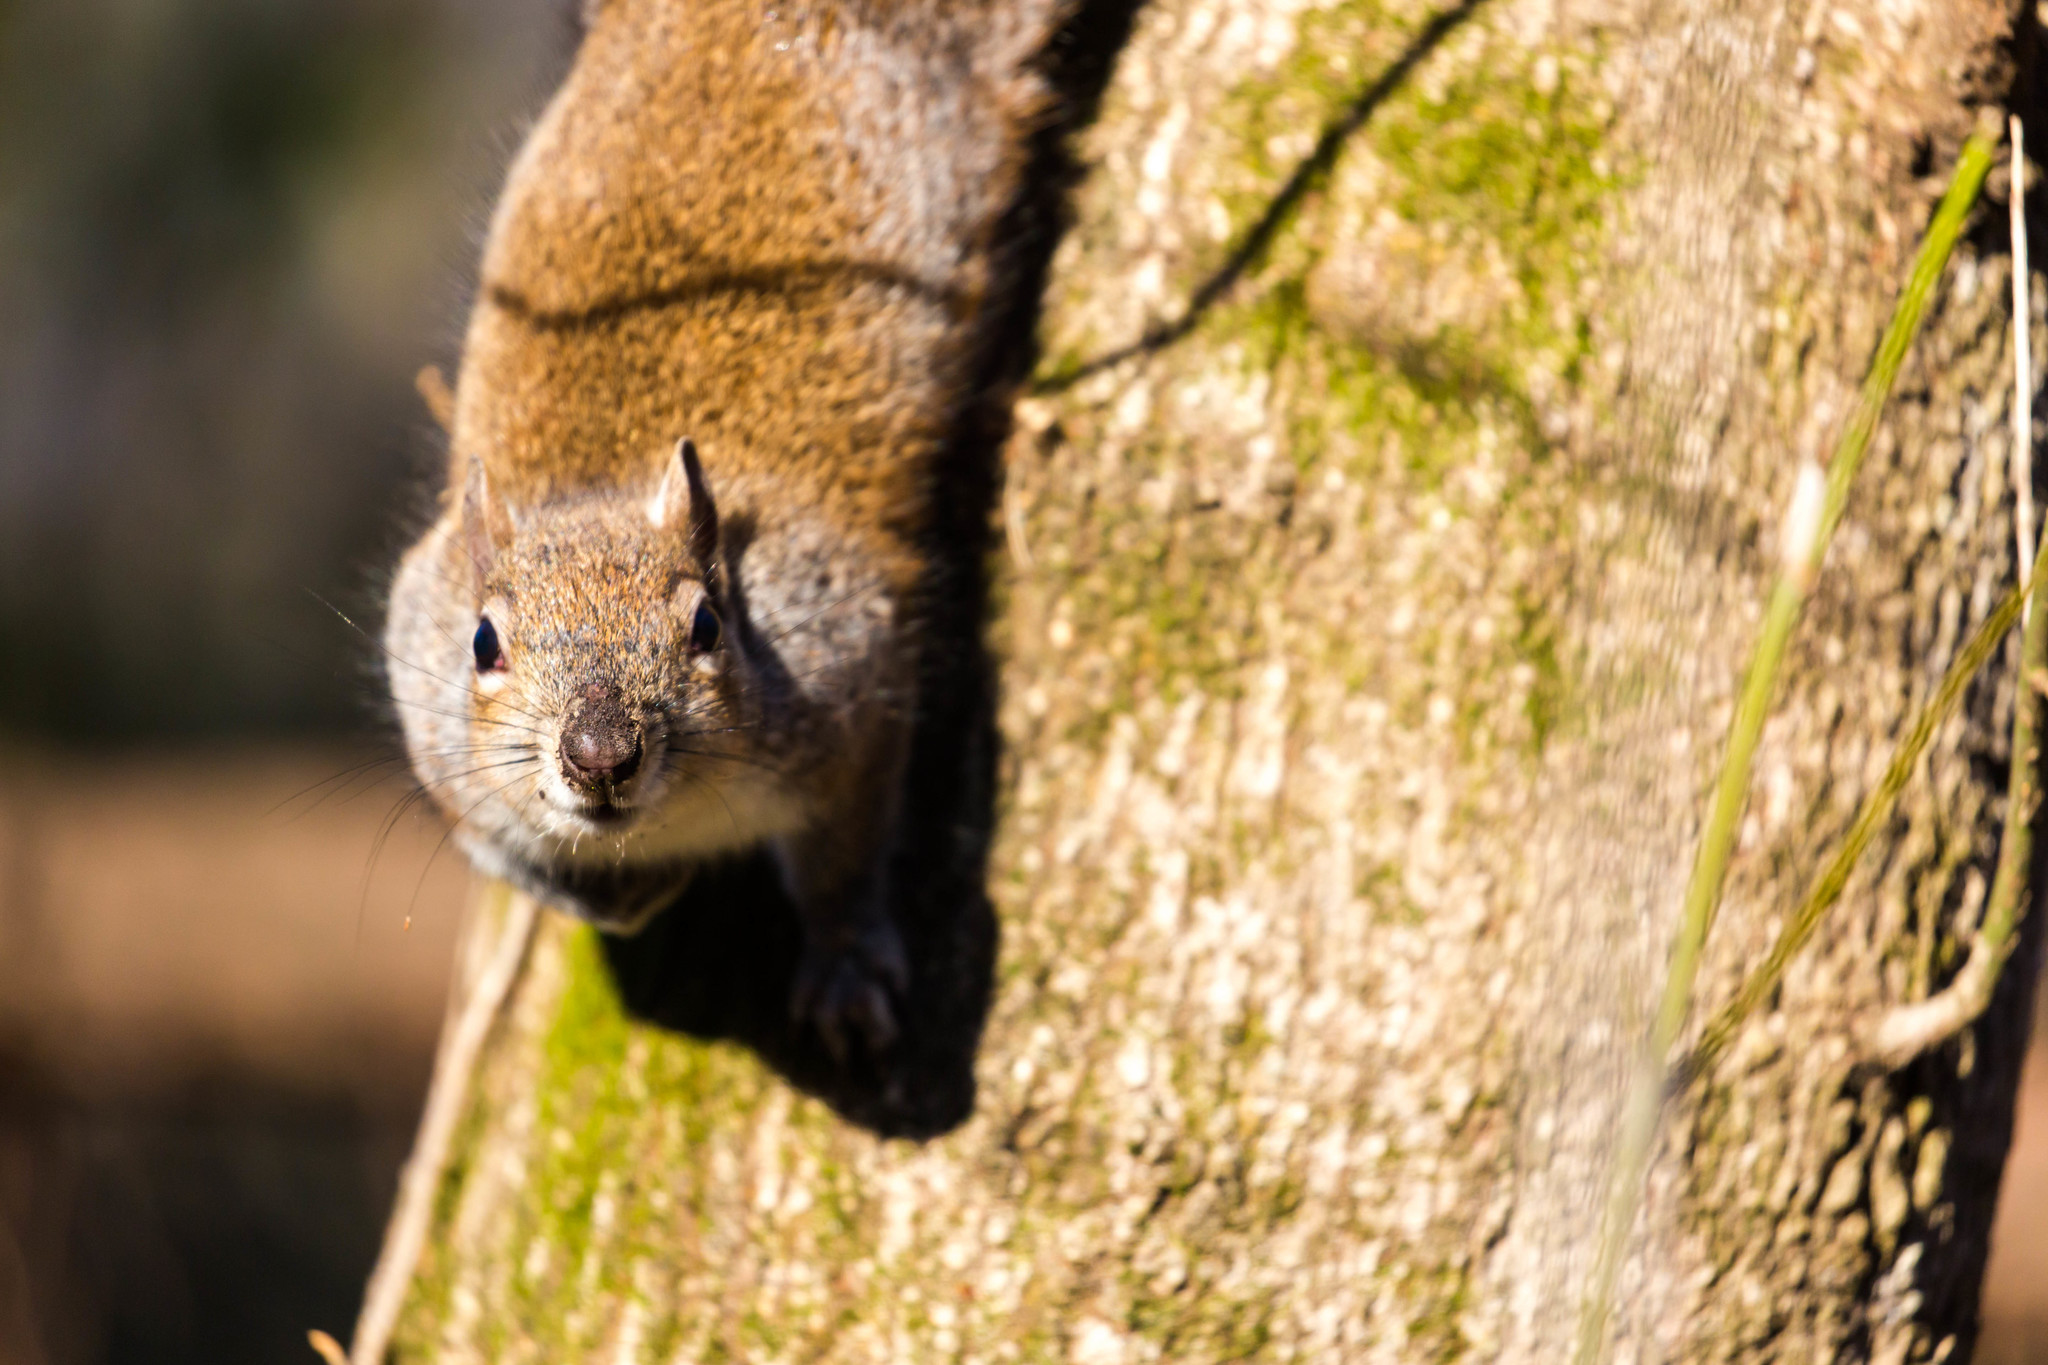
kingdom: Animalia
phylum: Chordata
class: Mammalia
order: Rodentia
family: Sciuridae
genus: Sciurus
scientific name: Sciurus carolinensis
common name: Eastern gray squirrel
